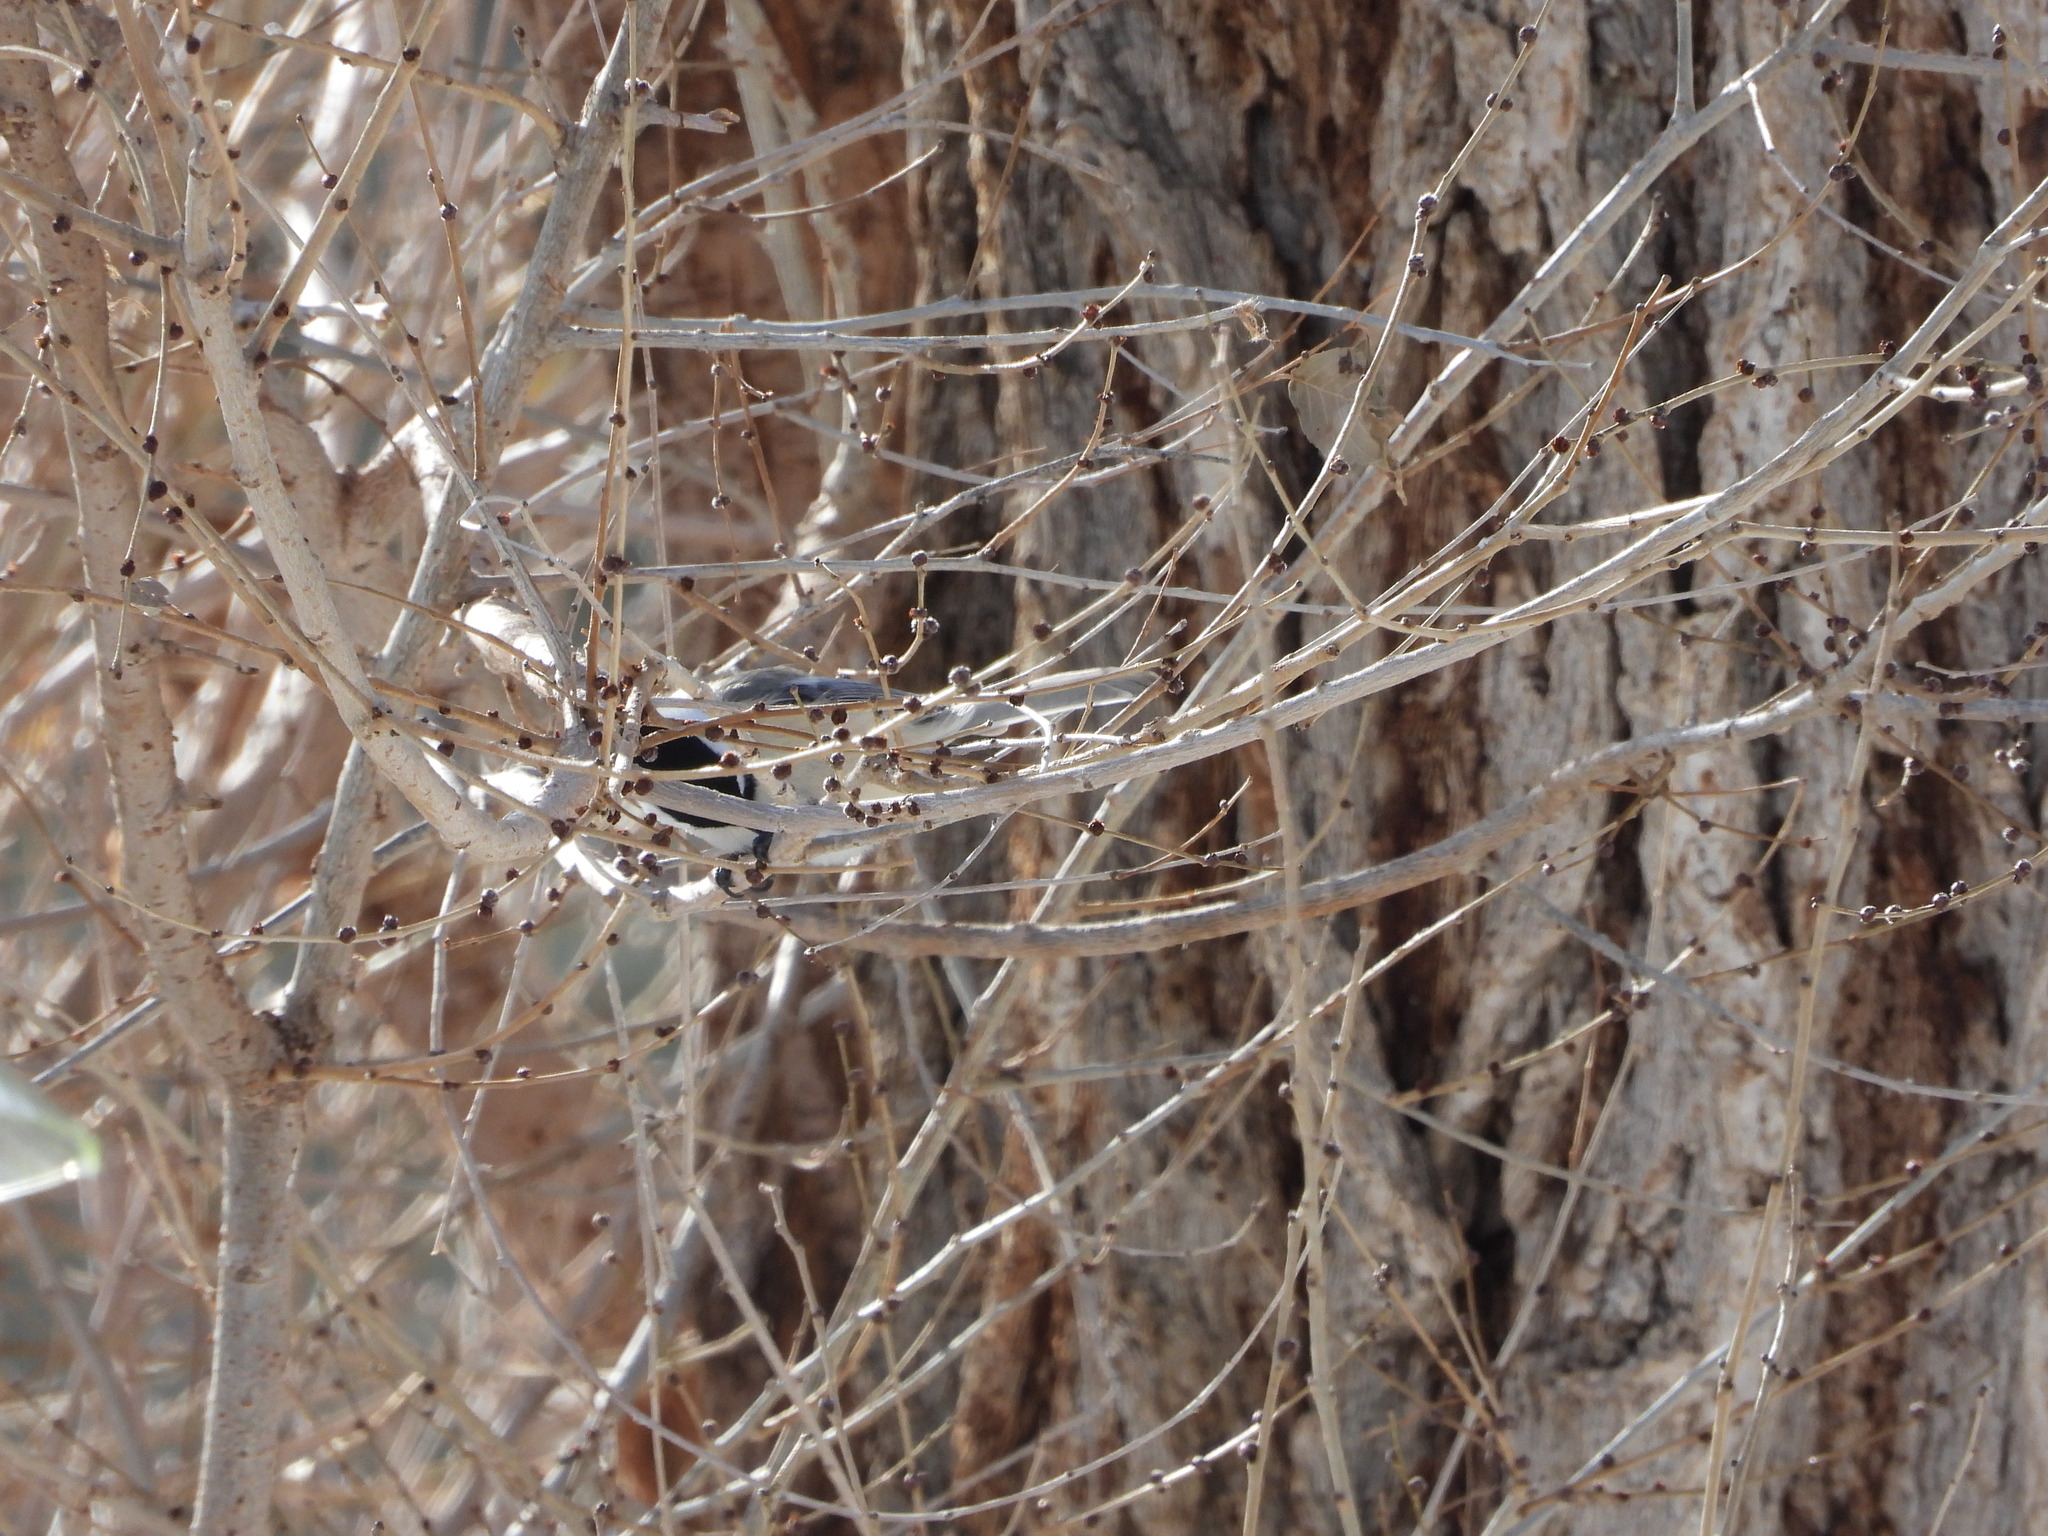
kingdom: Animalia
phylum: Chordata
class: Aves
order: Passeriformes
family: Paridae
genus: Poecile
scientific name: Poecile atricapillus
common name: Black-capped chickadee
